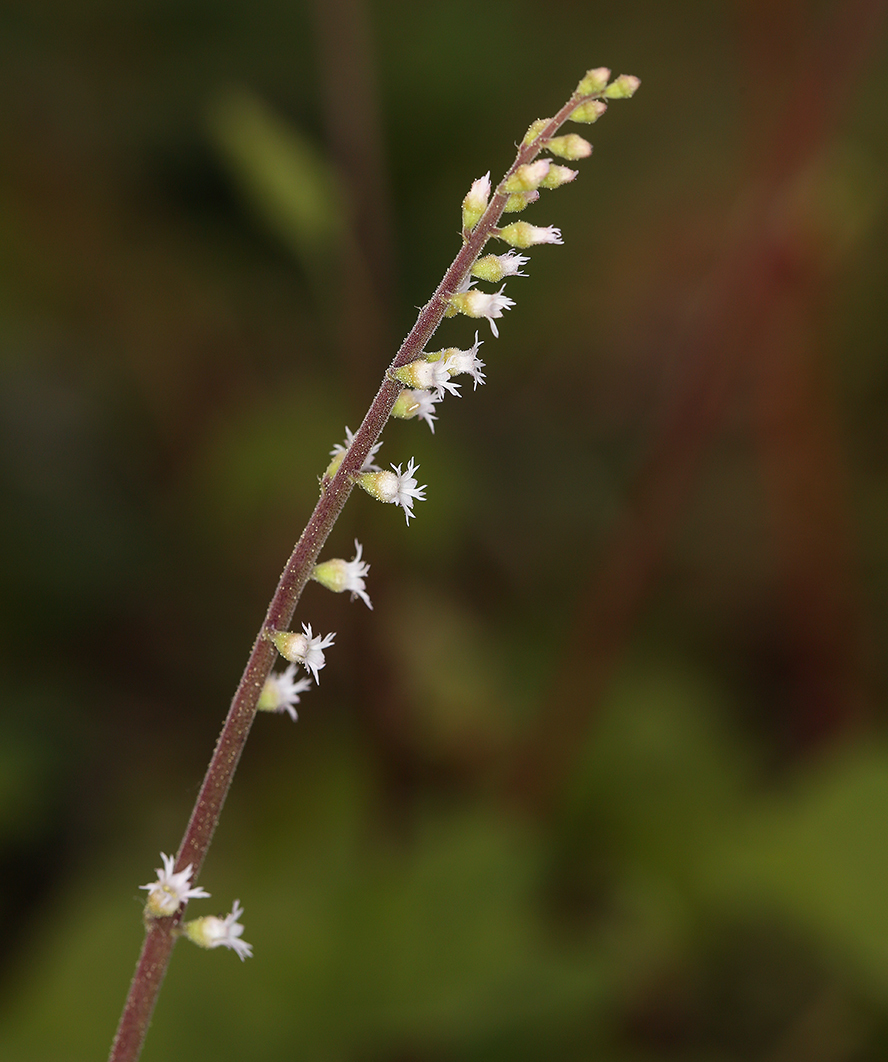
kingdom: Plantae
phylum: Tracheophyta
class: Magnoliopsida
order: Saxifragales
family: Saxifragaceae
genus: Ozomelis
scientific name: Ozomelis diversifolia
